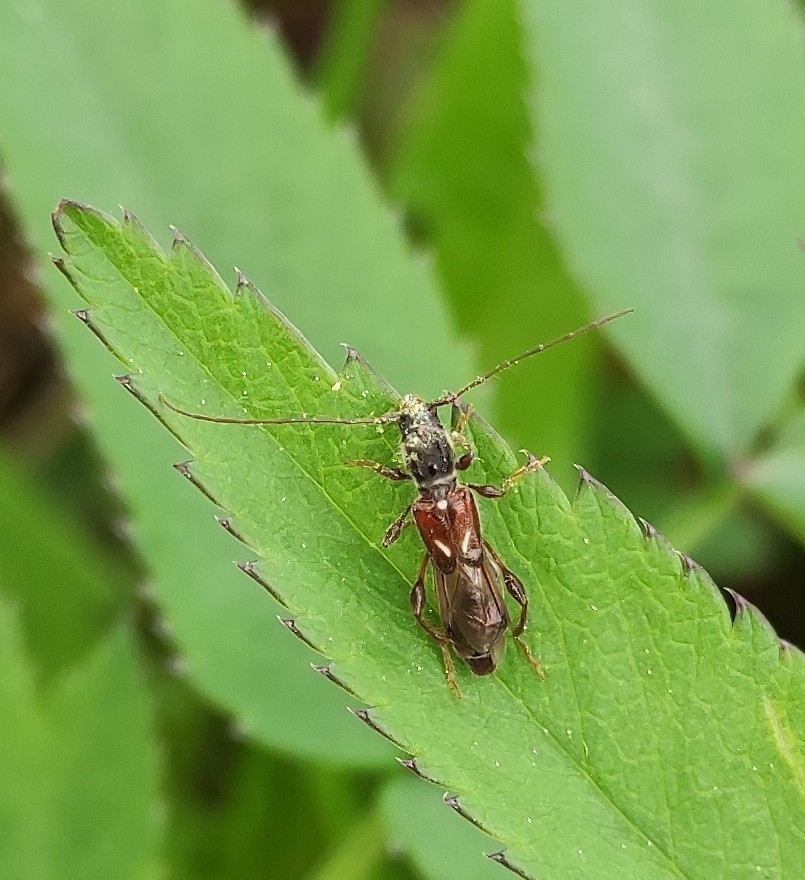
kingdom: Animalia
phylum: Arthropoda
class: Insecta
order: Coleoptera
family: Cerambycidae
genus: Molorchus
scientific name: Molorchus minor
